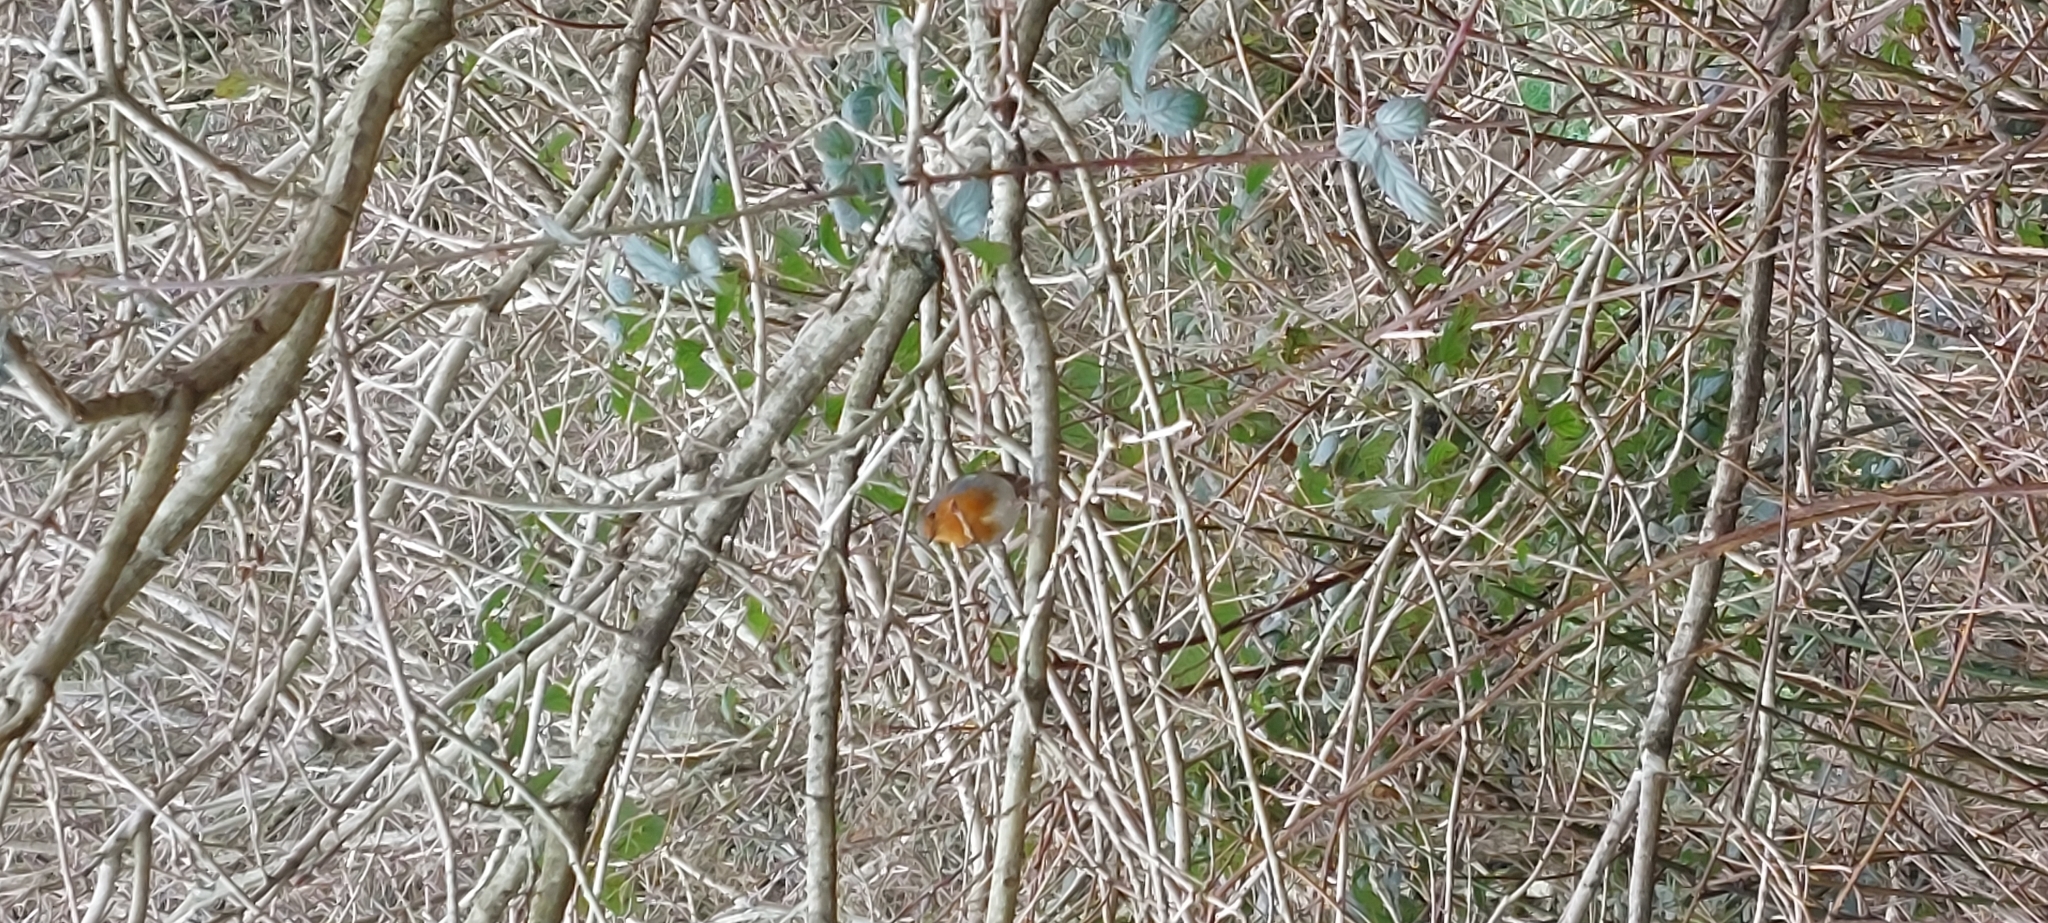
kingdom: Animalia
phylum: Chordata
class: Aves
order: Passeriformes
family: Muscicapidae
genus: Erithacus
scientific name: Erithacus rubecula
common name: European robin
